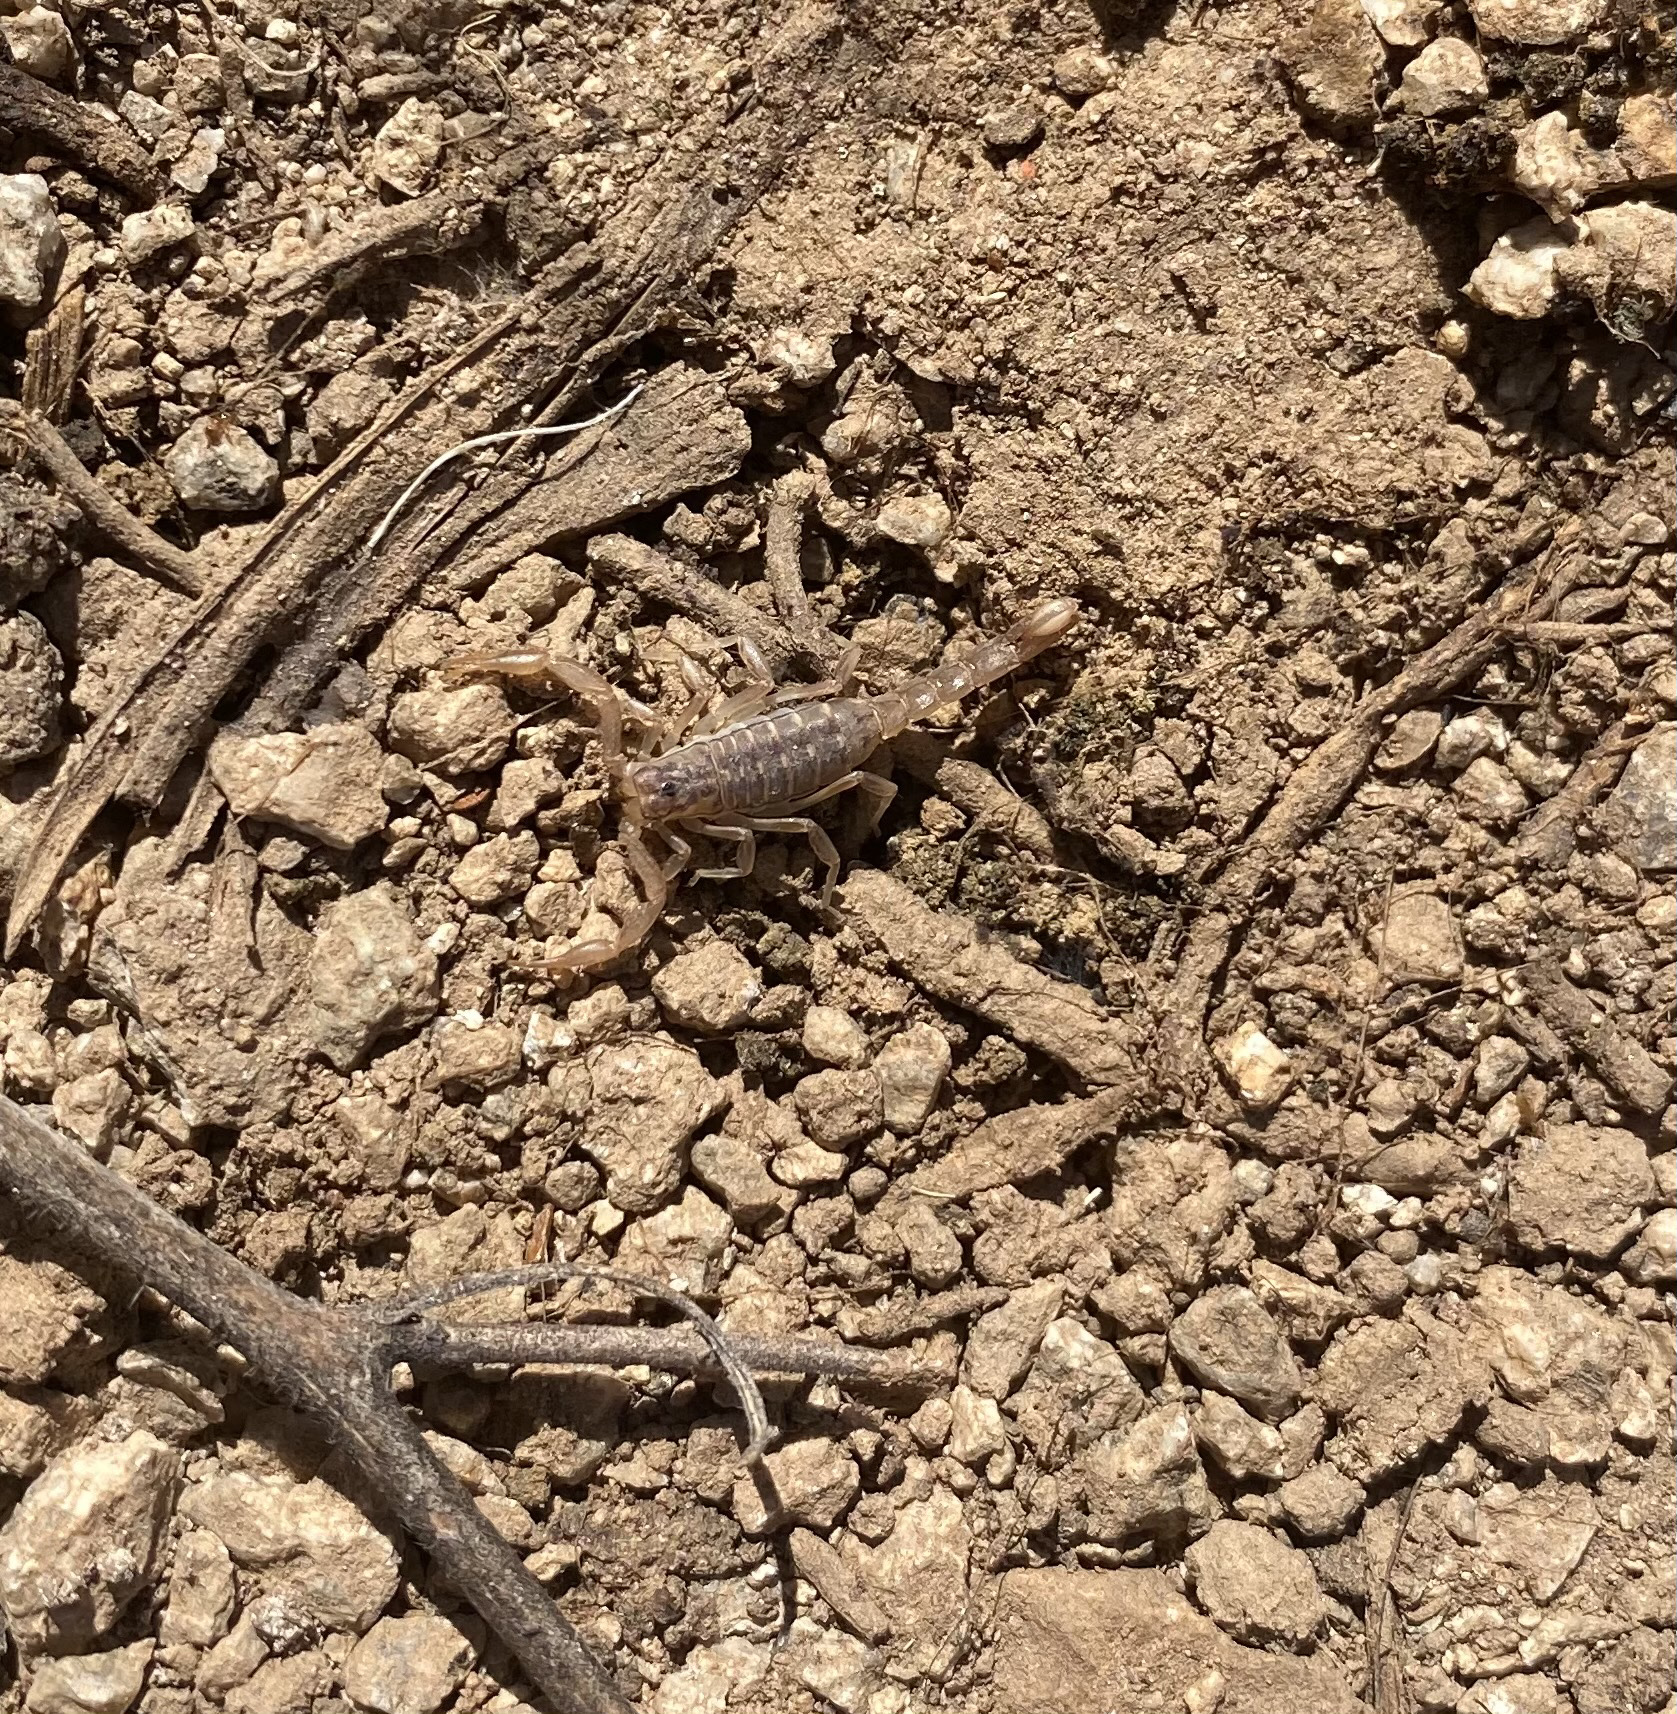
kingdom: Animalia
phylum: Arthropoda
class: Arachnida
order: Scorpiones
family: Vaejovidae
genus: Paravaejovis
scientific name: Paravaejovis spinigerus
